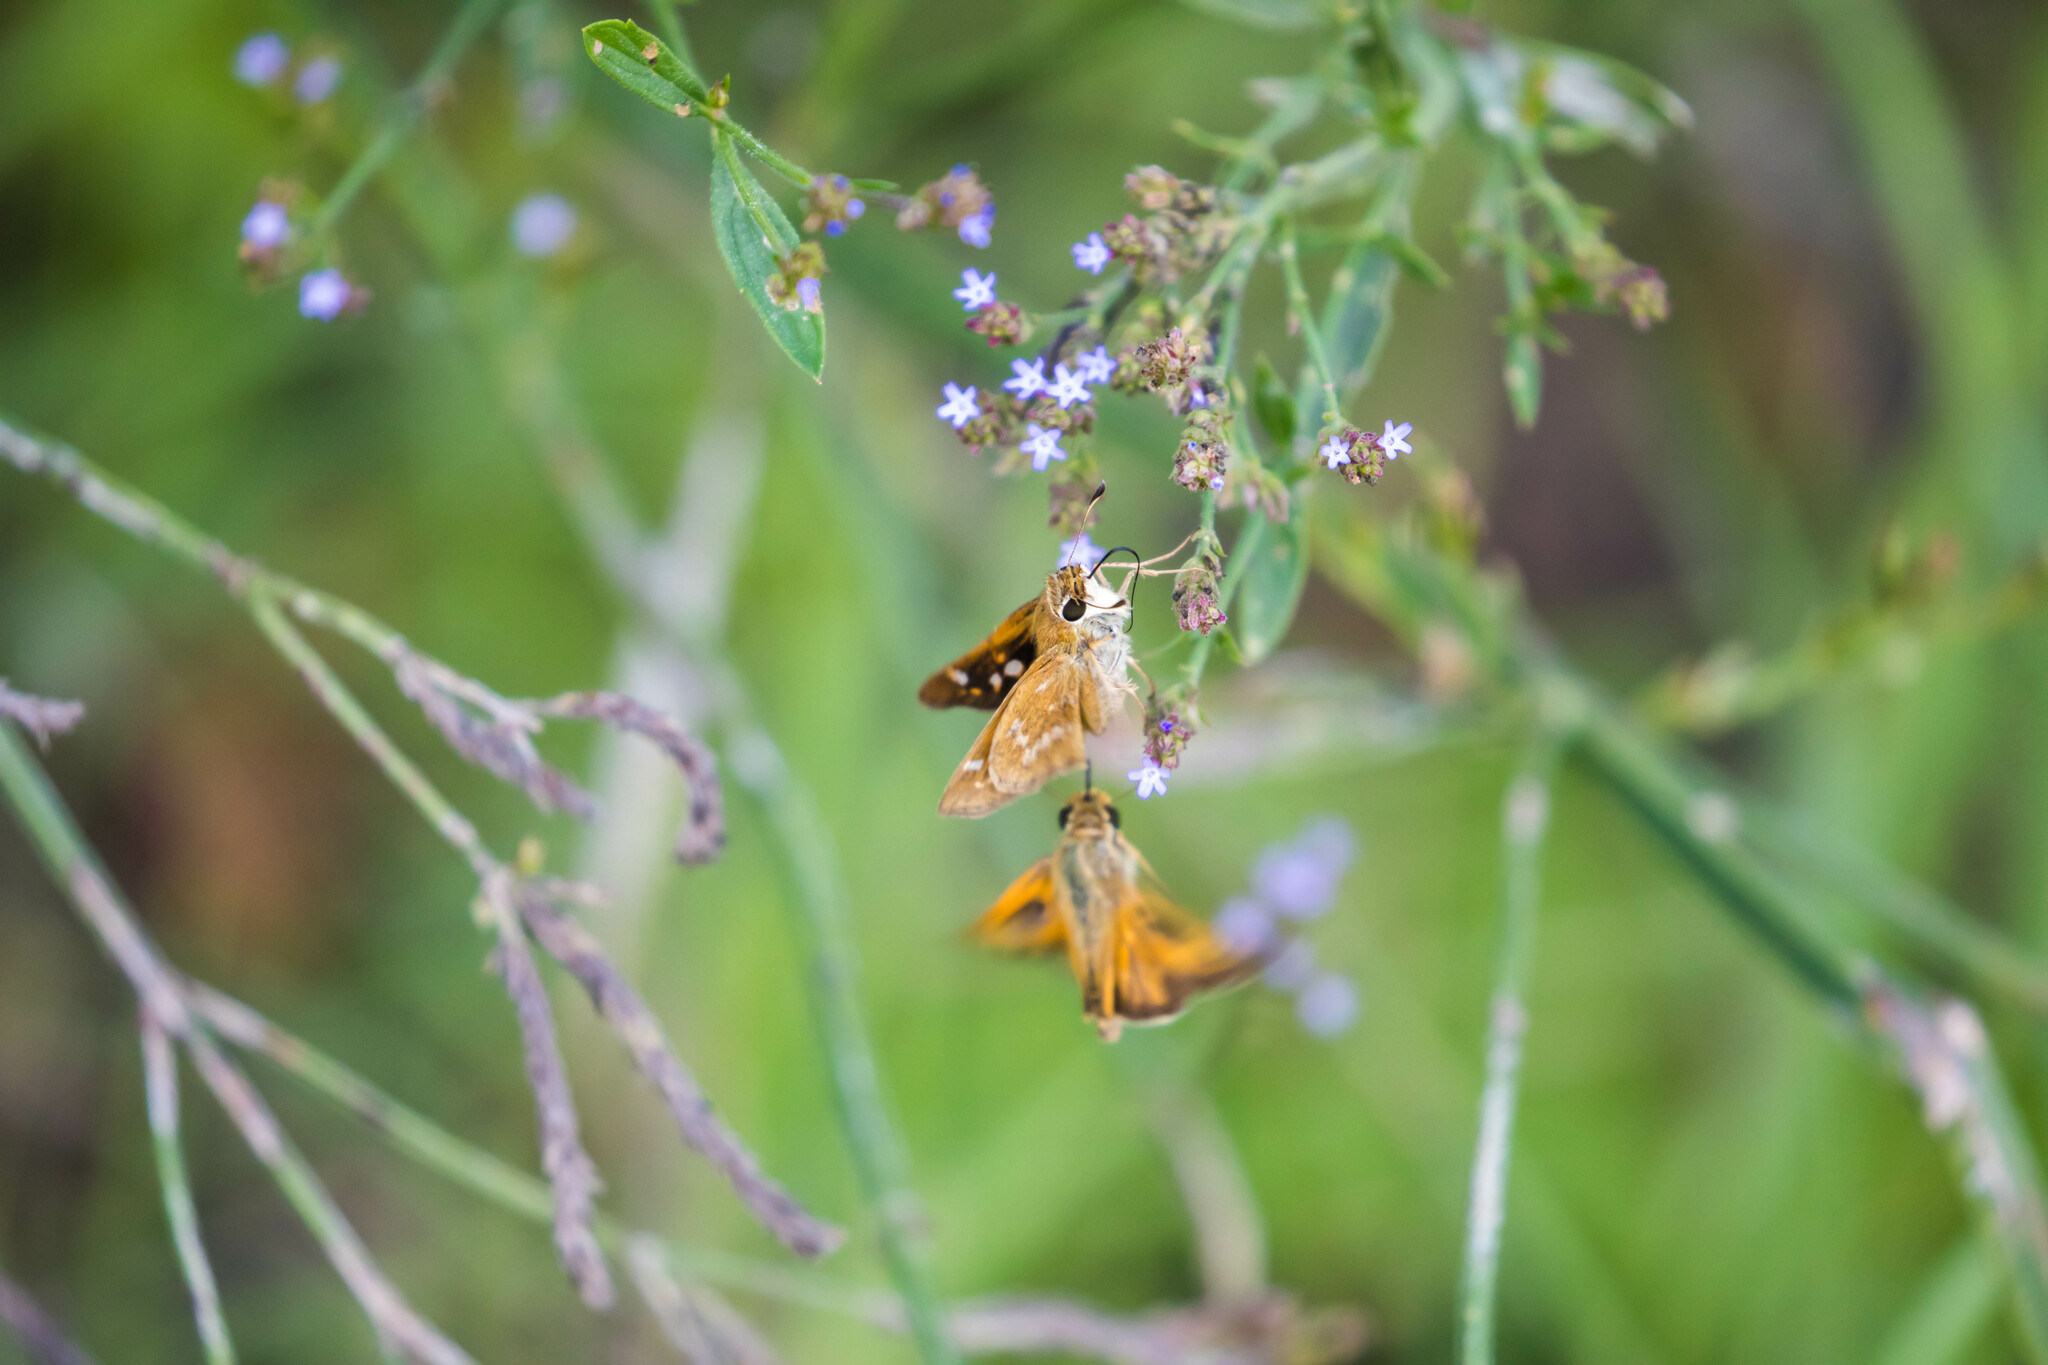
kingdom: Animalia
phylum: Arthropoda
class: Insecta
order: Lepidoptera
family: Hesperiidae
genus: Atalopedes
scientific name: Atalopedes
